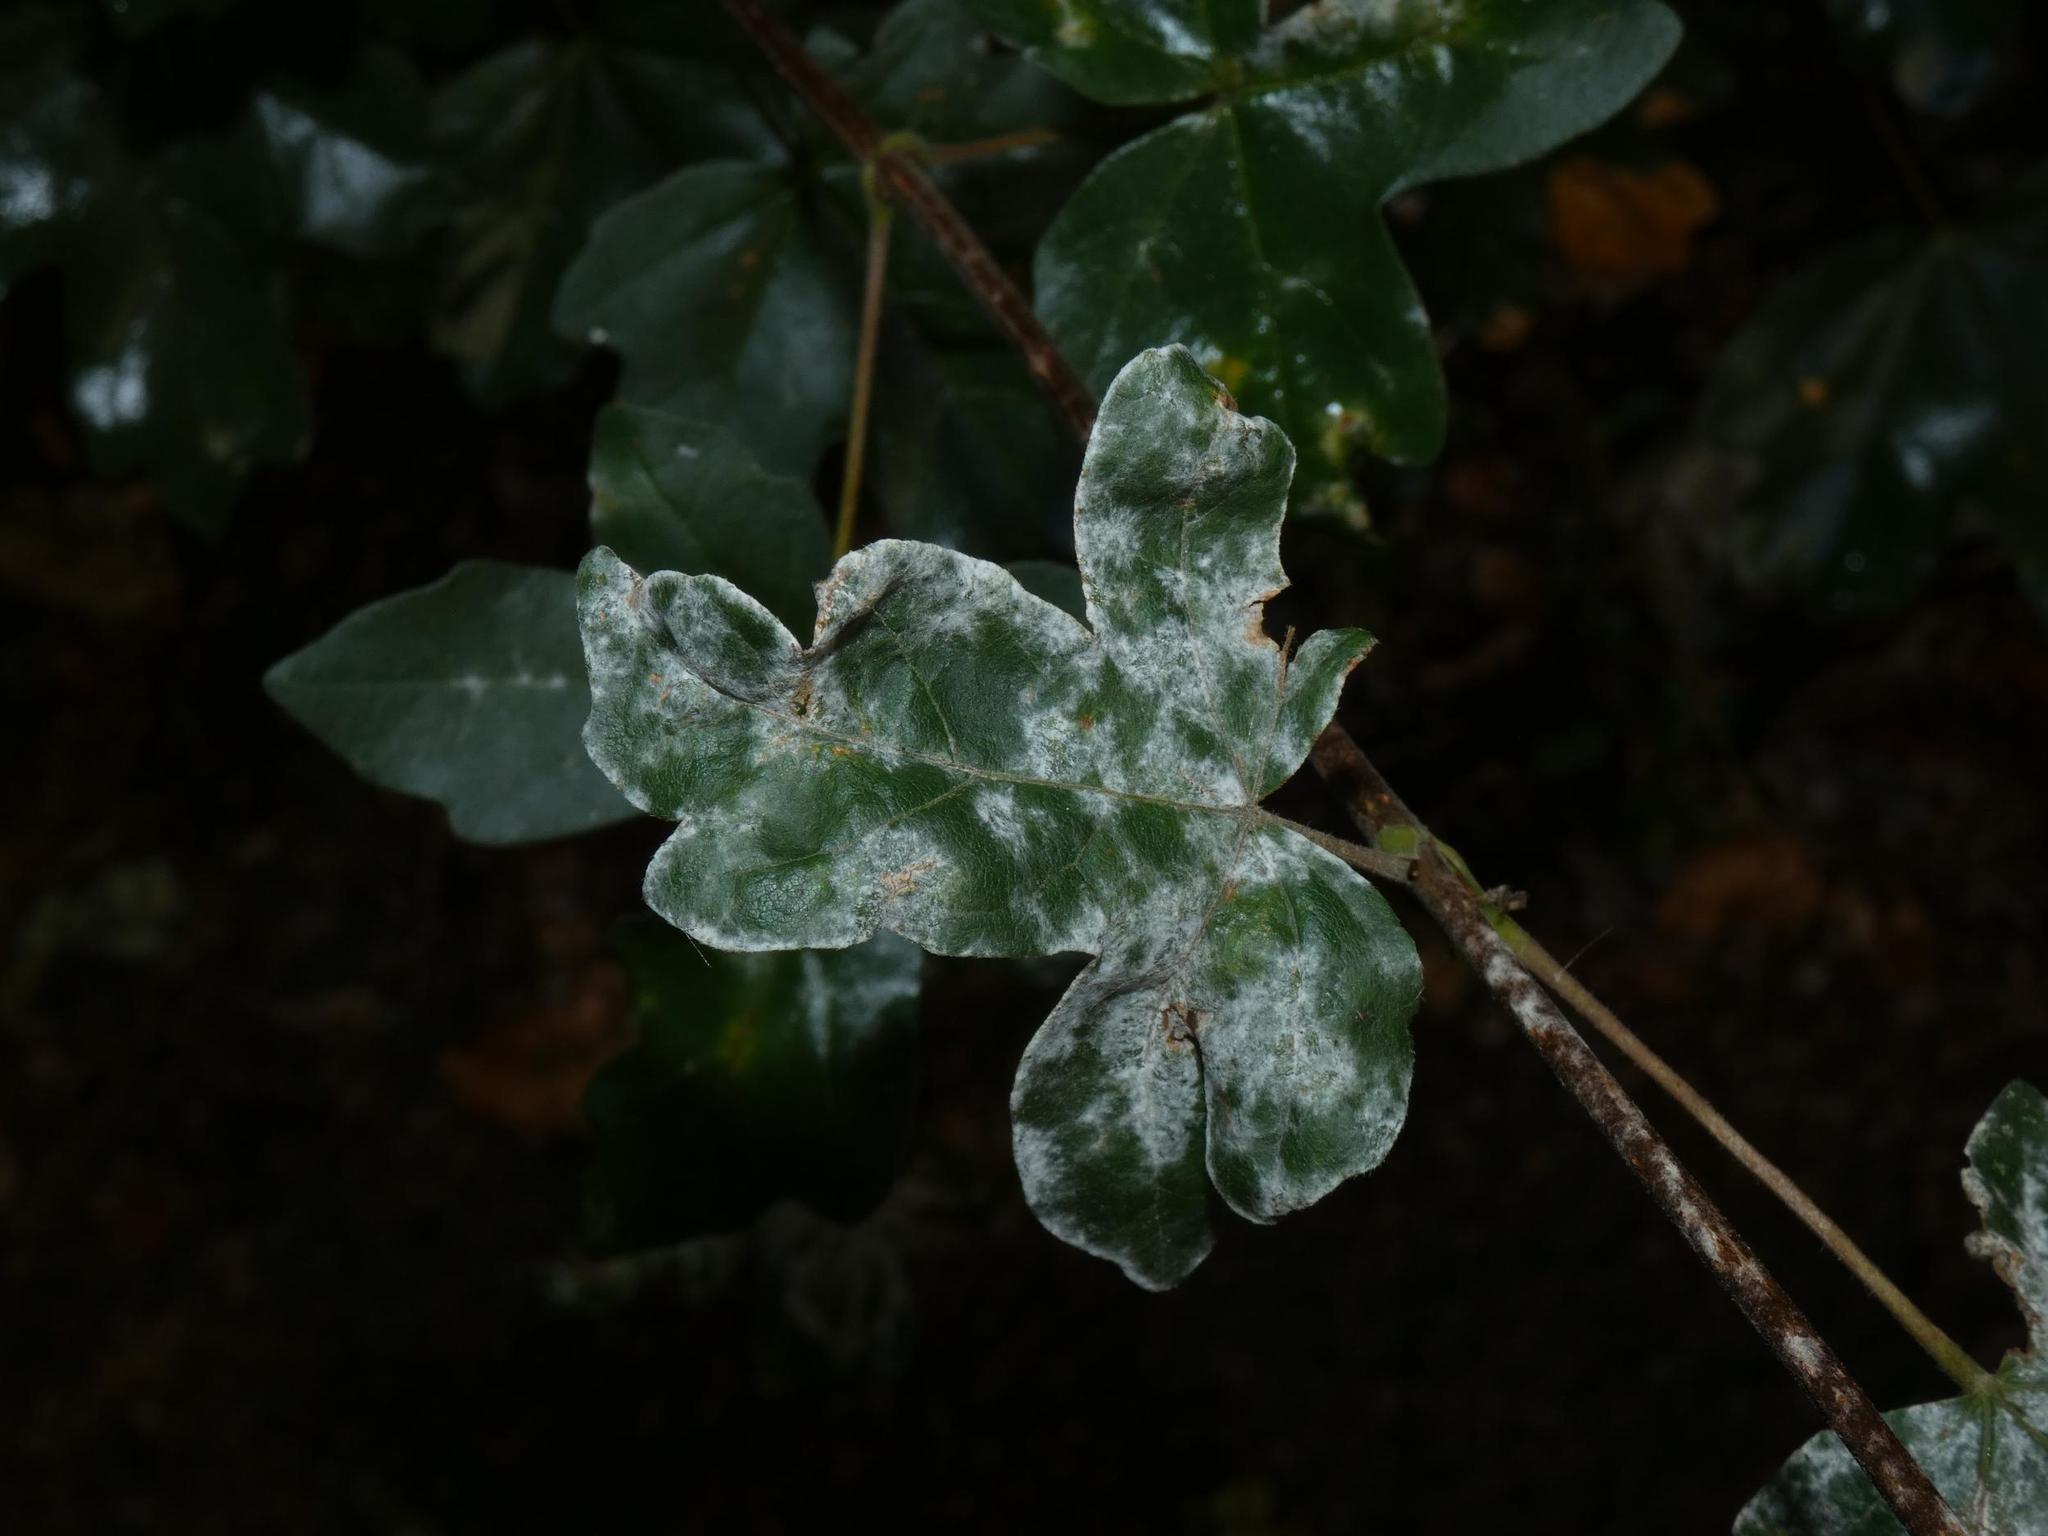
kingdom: Plantae
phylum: Tracheophyta
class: Magnoliopsida
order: Sapindales
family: Sapindaceae
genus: Acer
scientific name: Acer campestre
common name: Field maple
